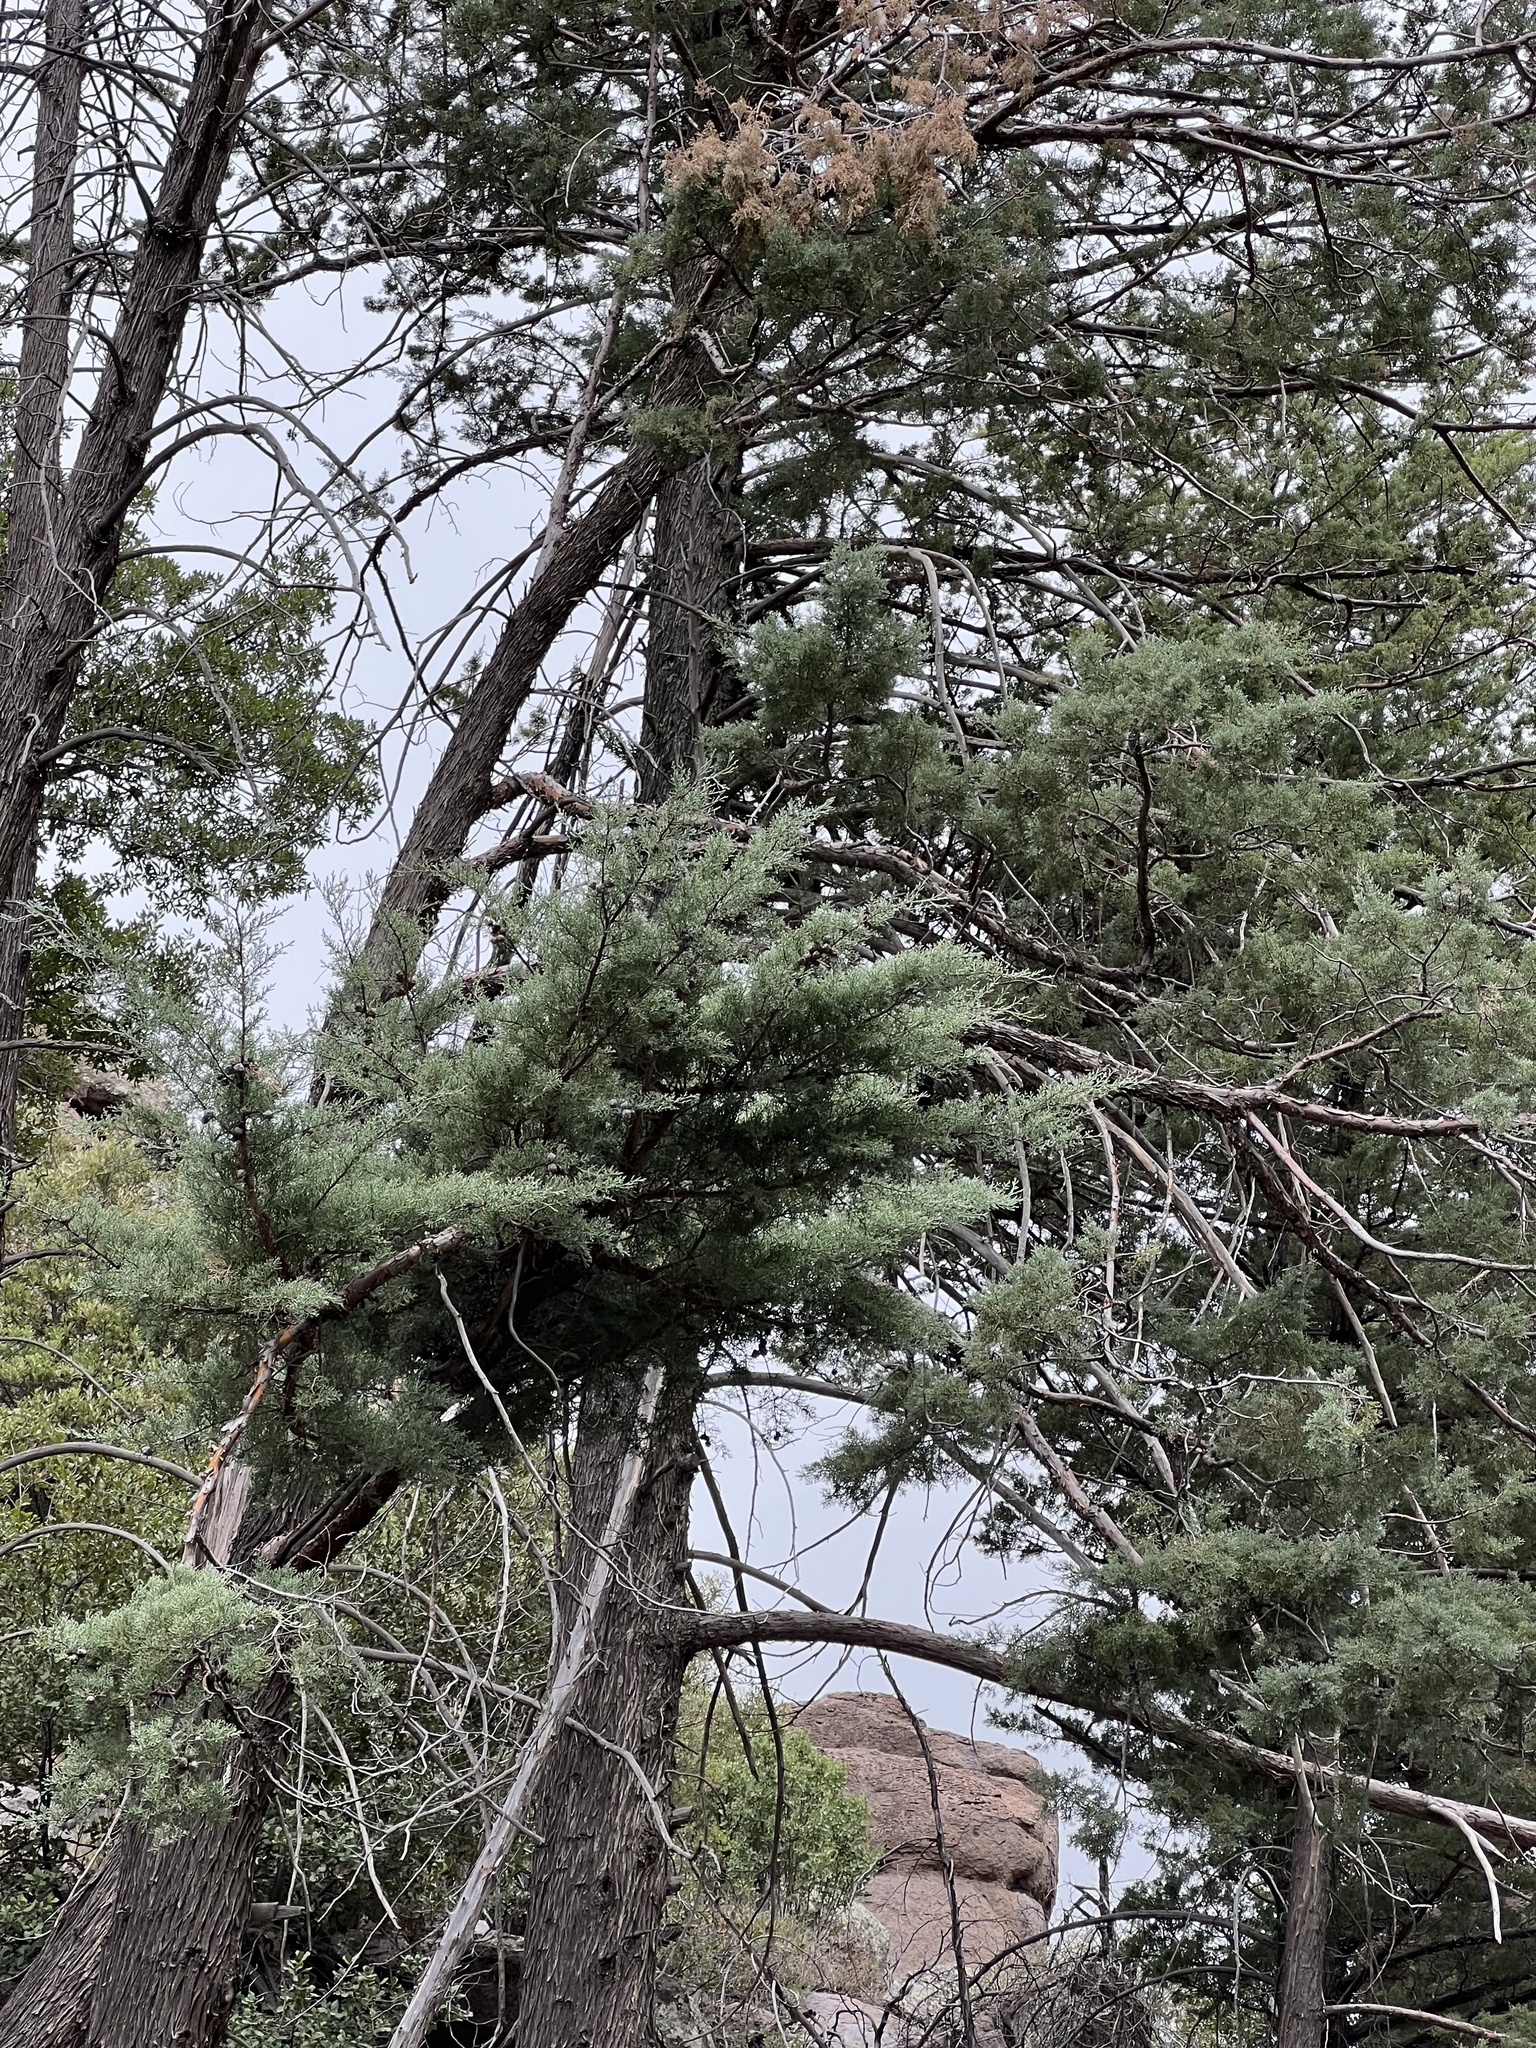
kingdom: Plantae
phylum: Tracheophyta
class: Pinopsida
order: Pinales
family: Cupressaceae
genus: Cupressus
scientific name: Cupressus arizonica
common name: Arizona cypress
